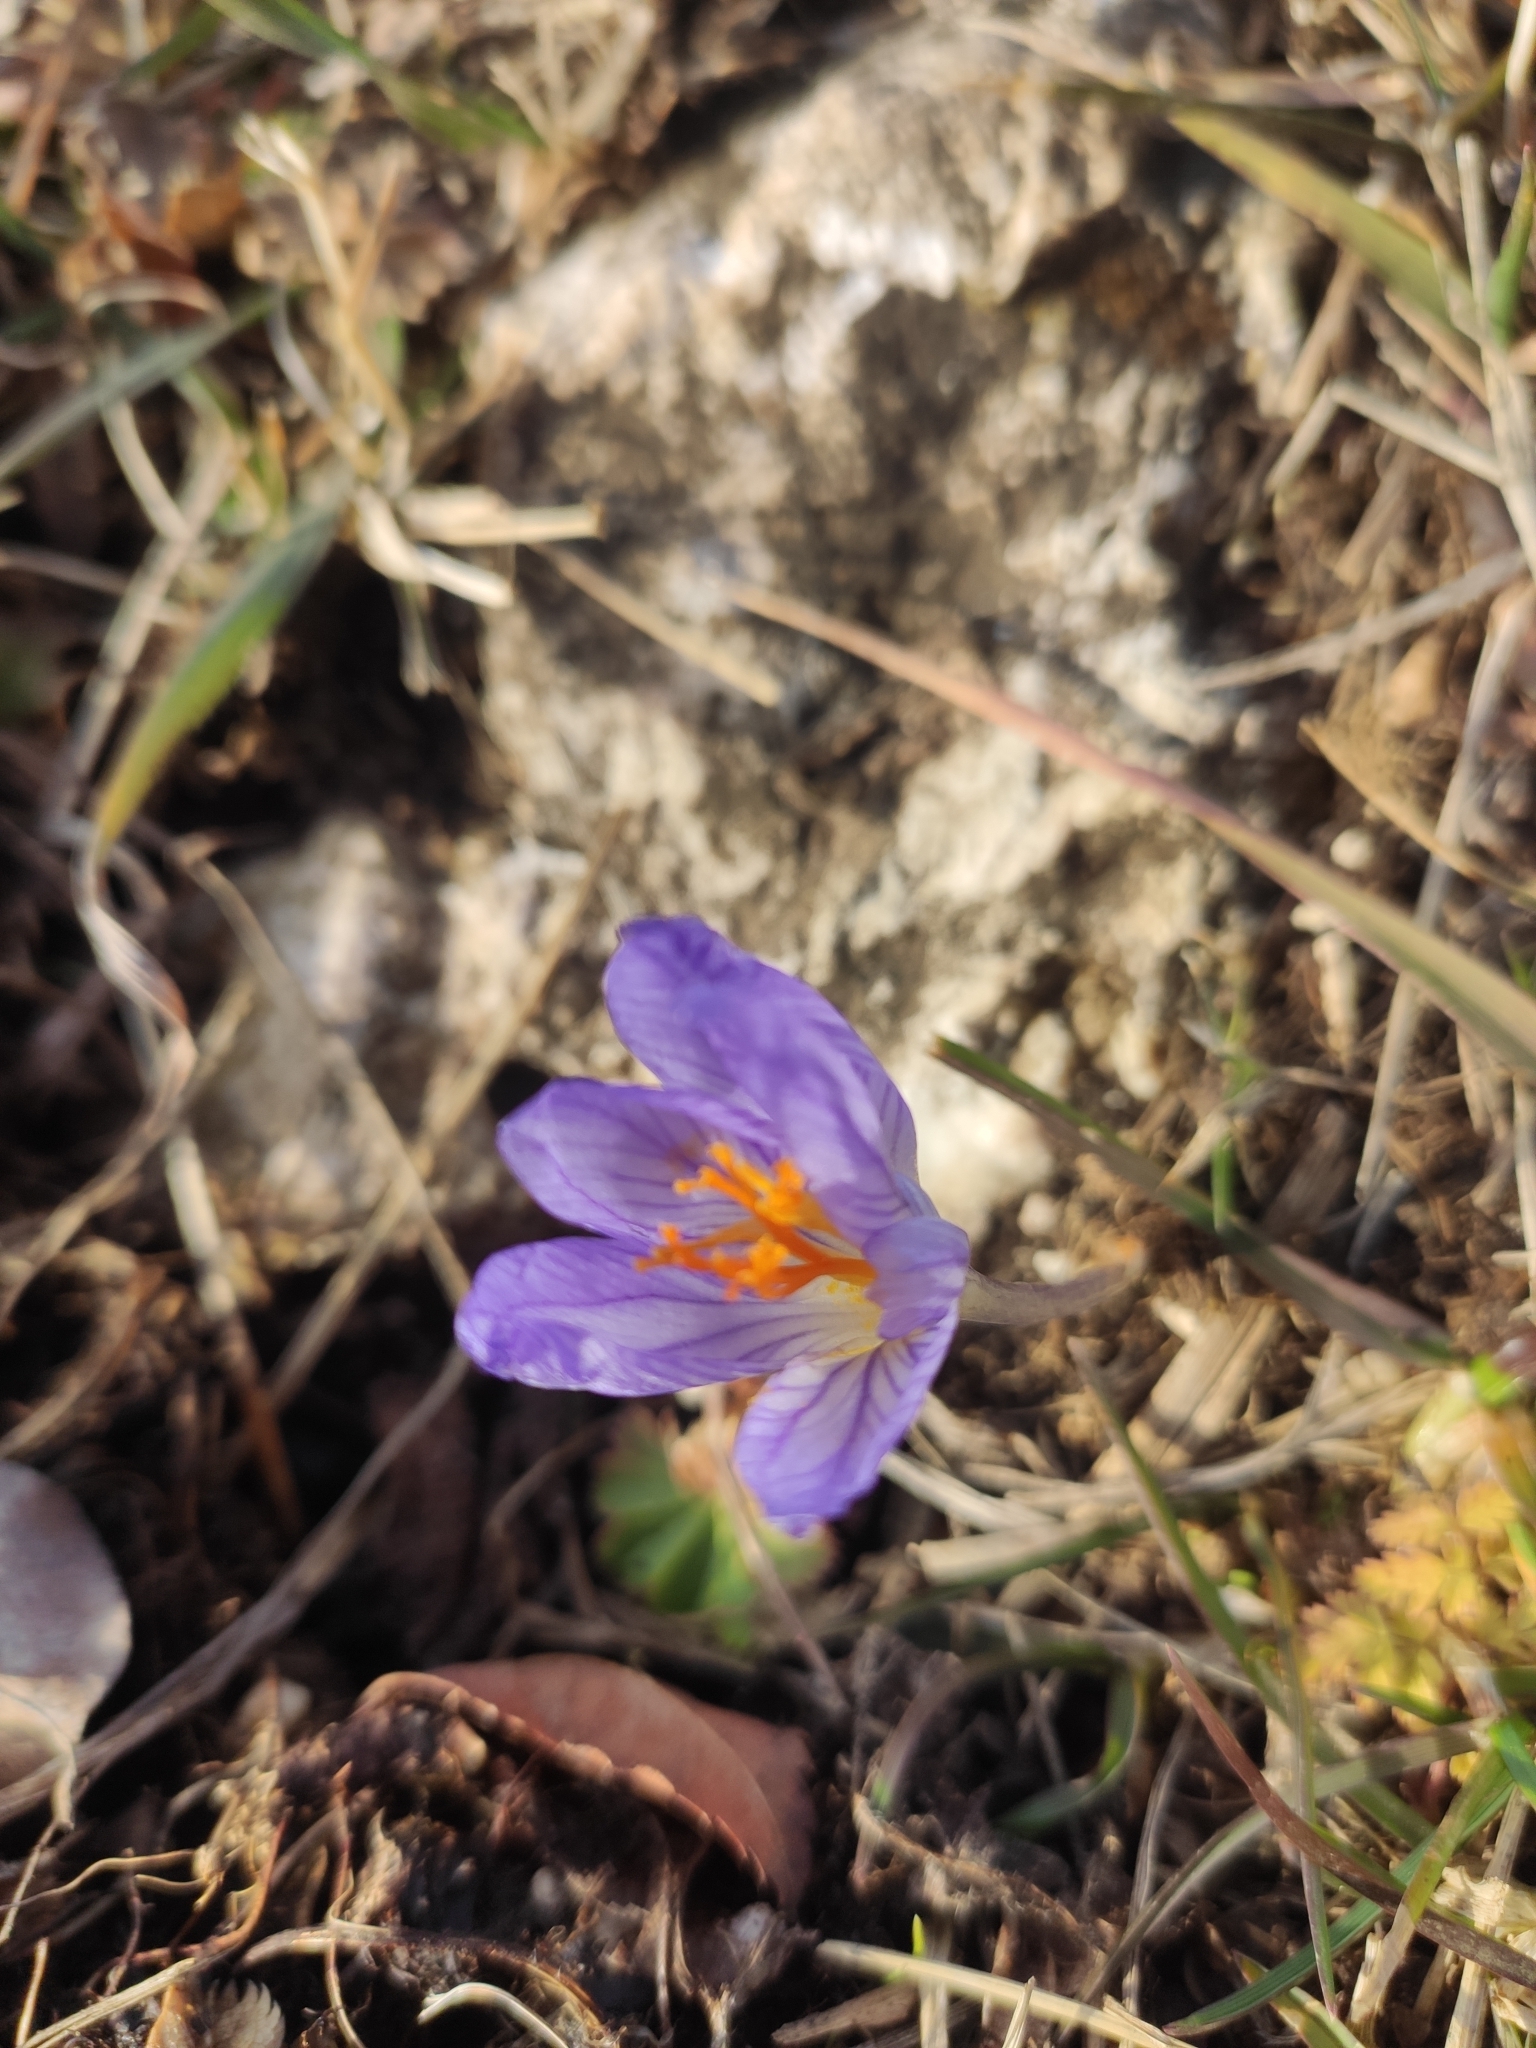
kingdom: Plantae
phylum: Tracheophyta
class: Liliopsida
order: Asparagales
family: Iridaceae
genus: Crocus
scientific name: Crocus speciosus
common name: Bieberstein's crocus
